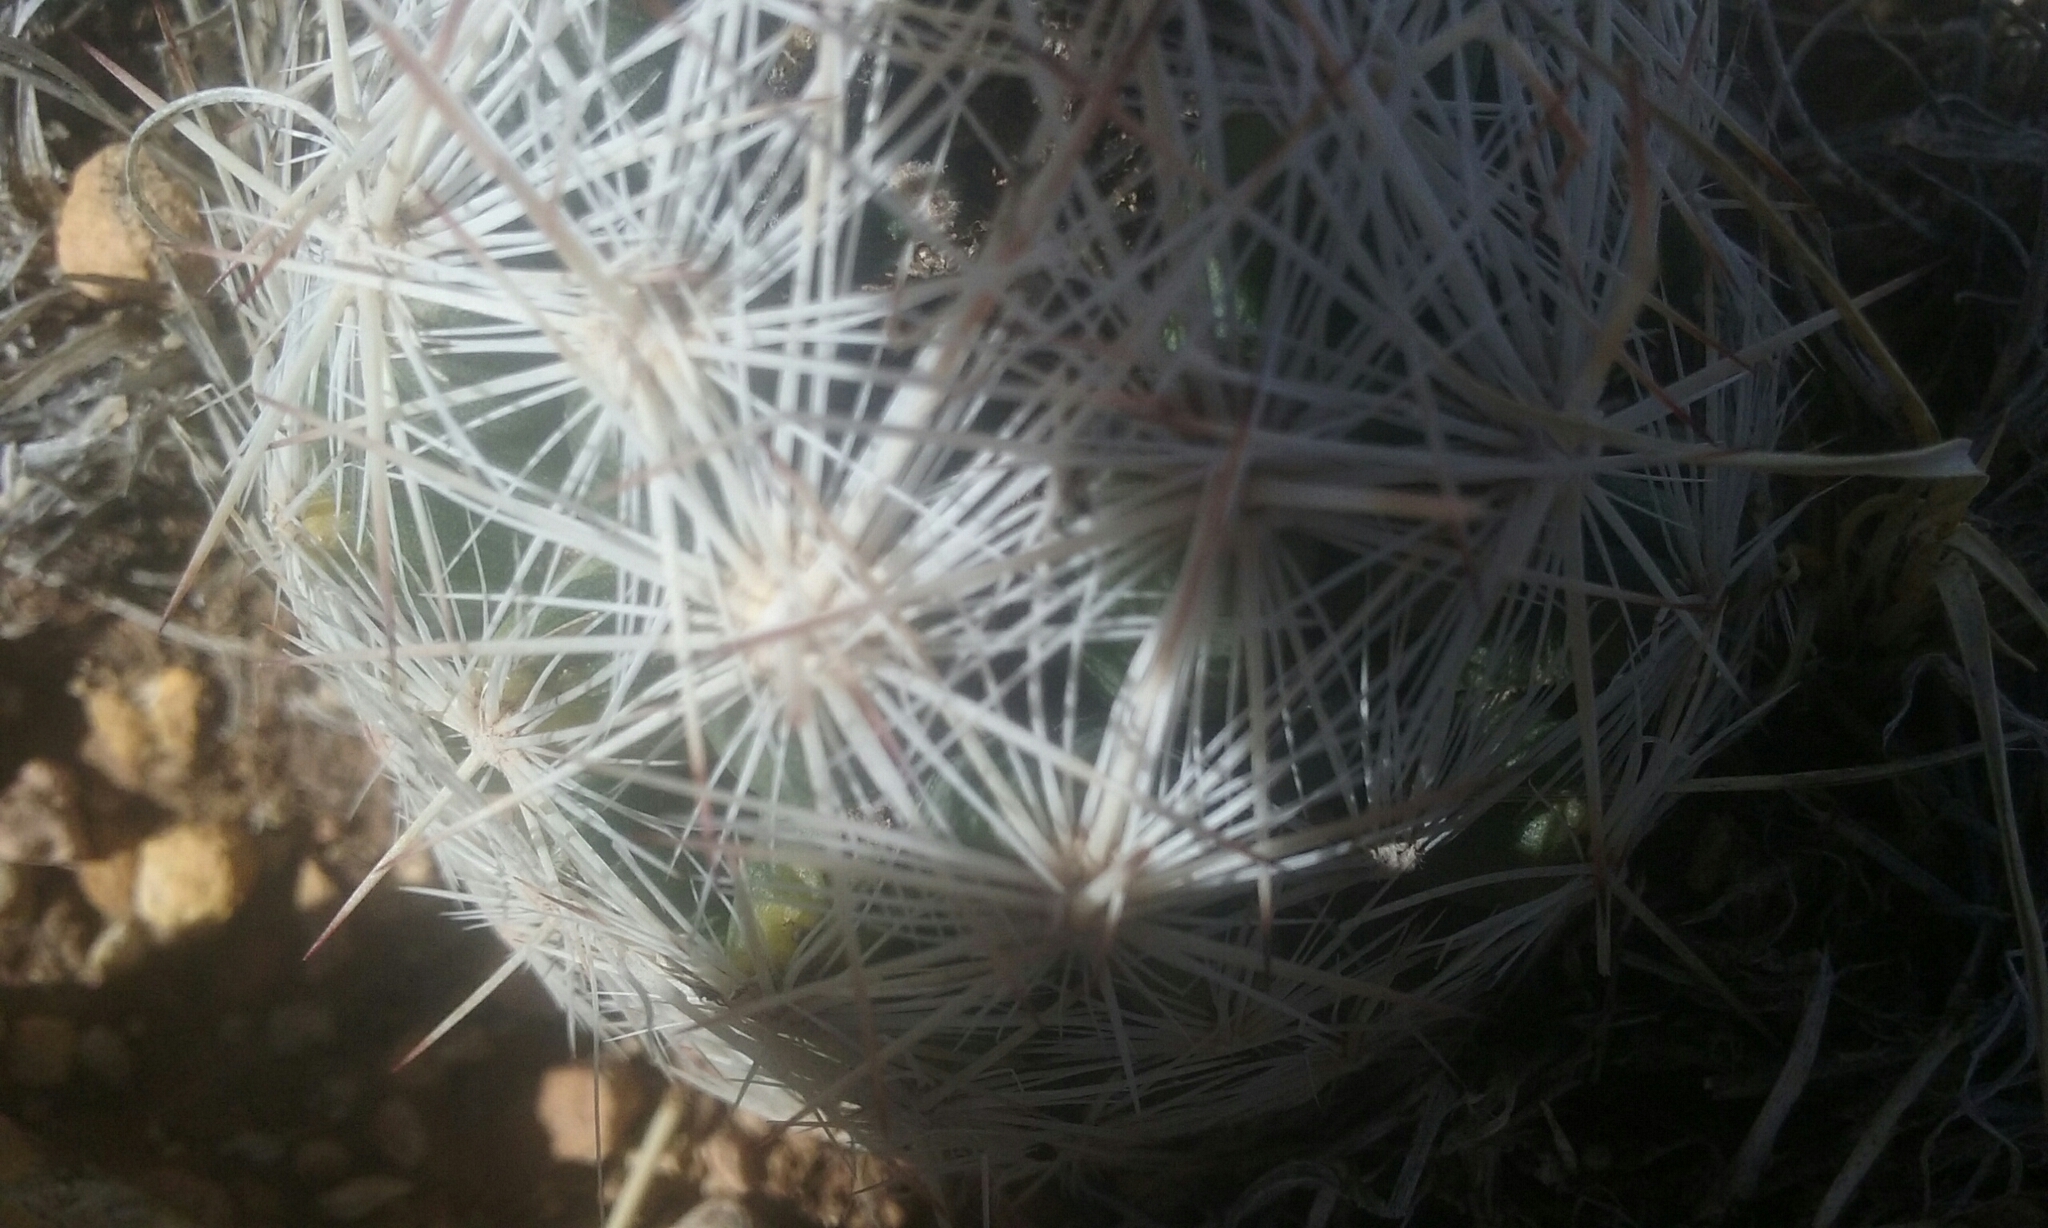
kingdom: Plantae
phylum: Tracheophyta
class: Magnoliopsida
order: Caryophyllales
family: Cactaceae
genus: Pelecyphora
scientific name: Pelecyphora tuberculosa
